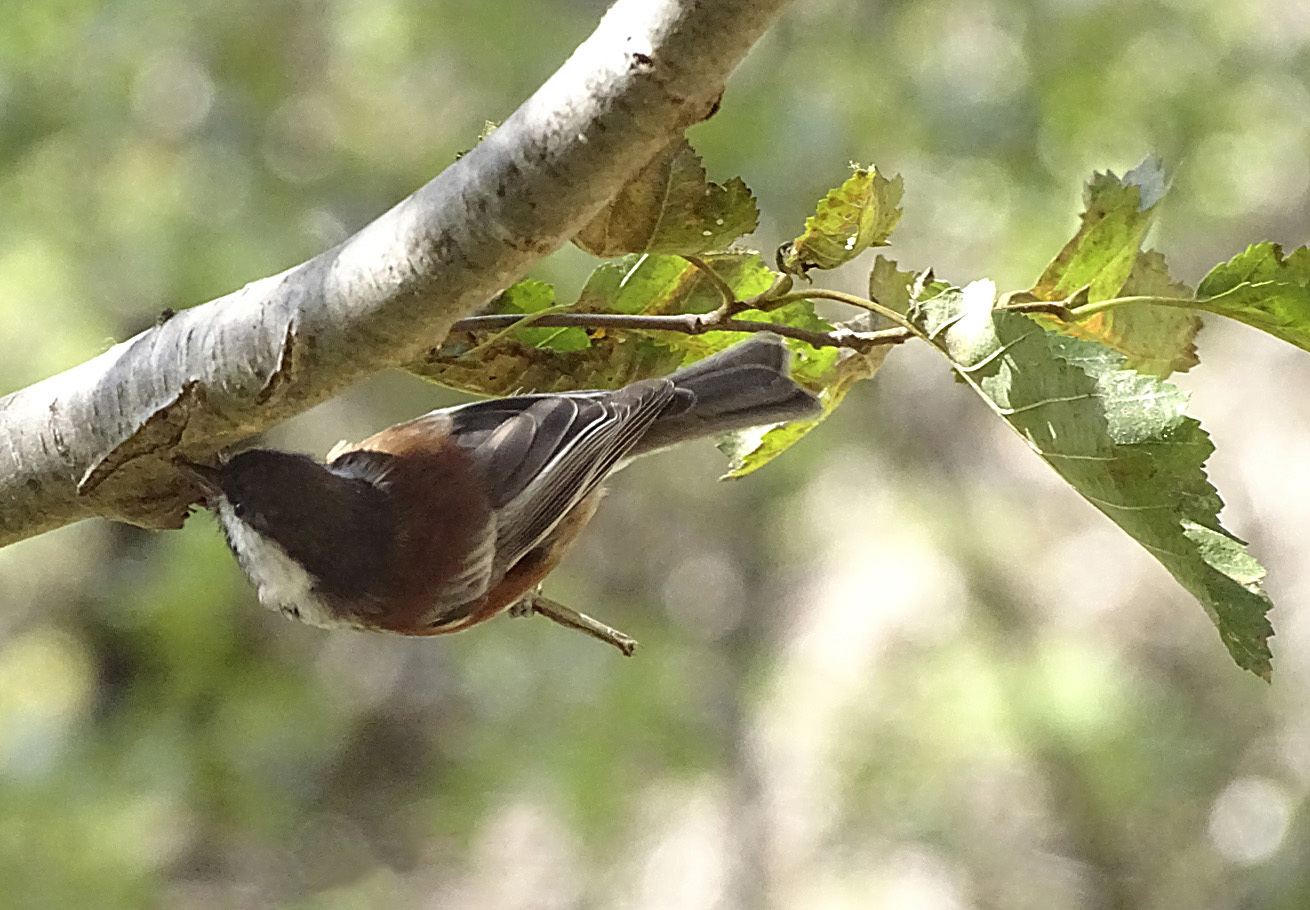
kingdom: Animalia
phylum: Chordata
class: Aves
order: Passeriformes
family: Paridae
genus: Poecile
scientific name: Poecile rufescens
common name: Chestnut-backed chickadee
